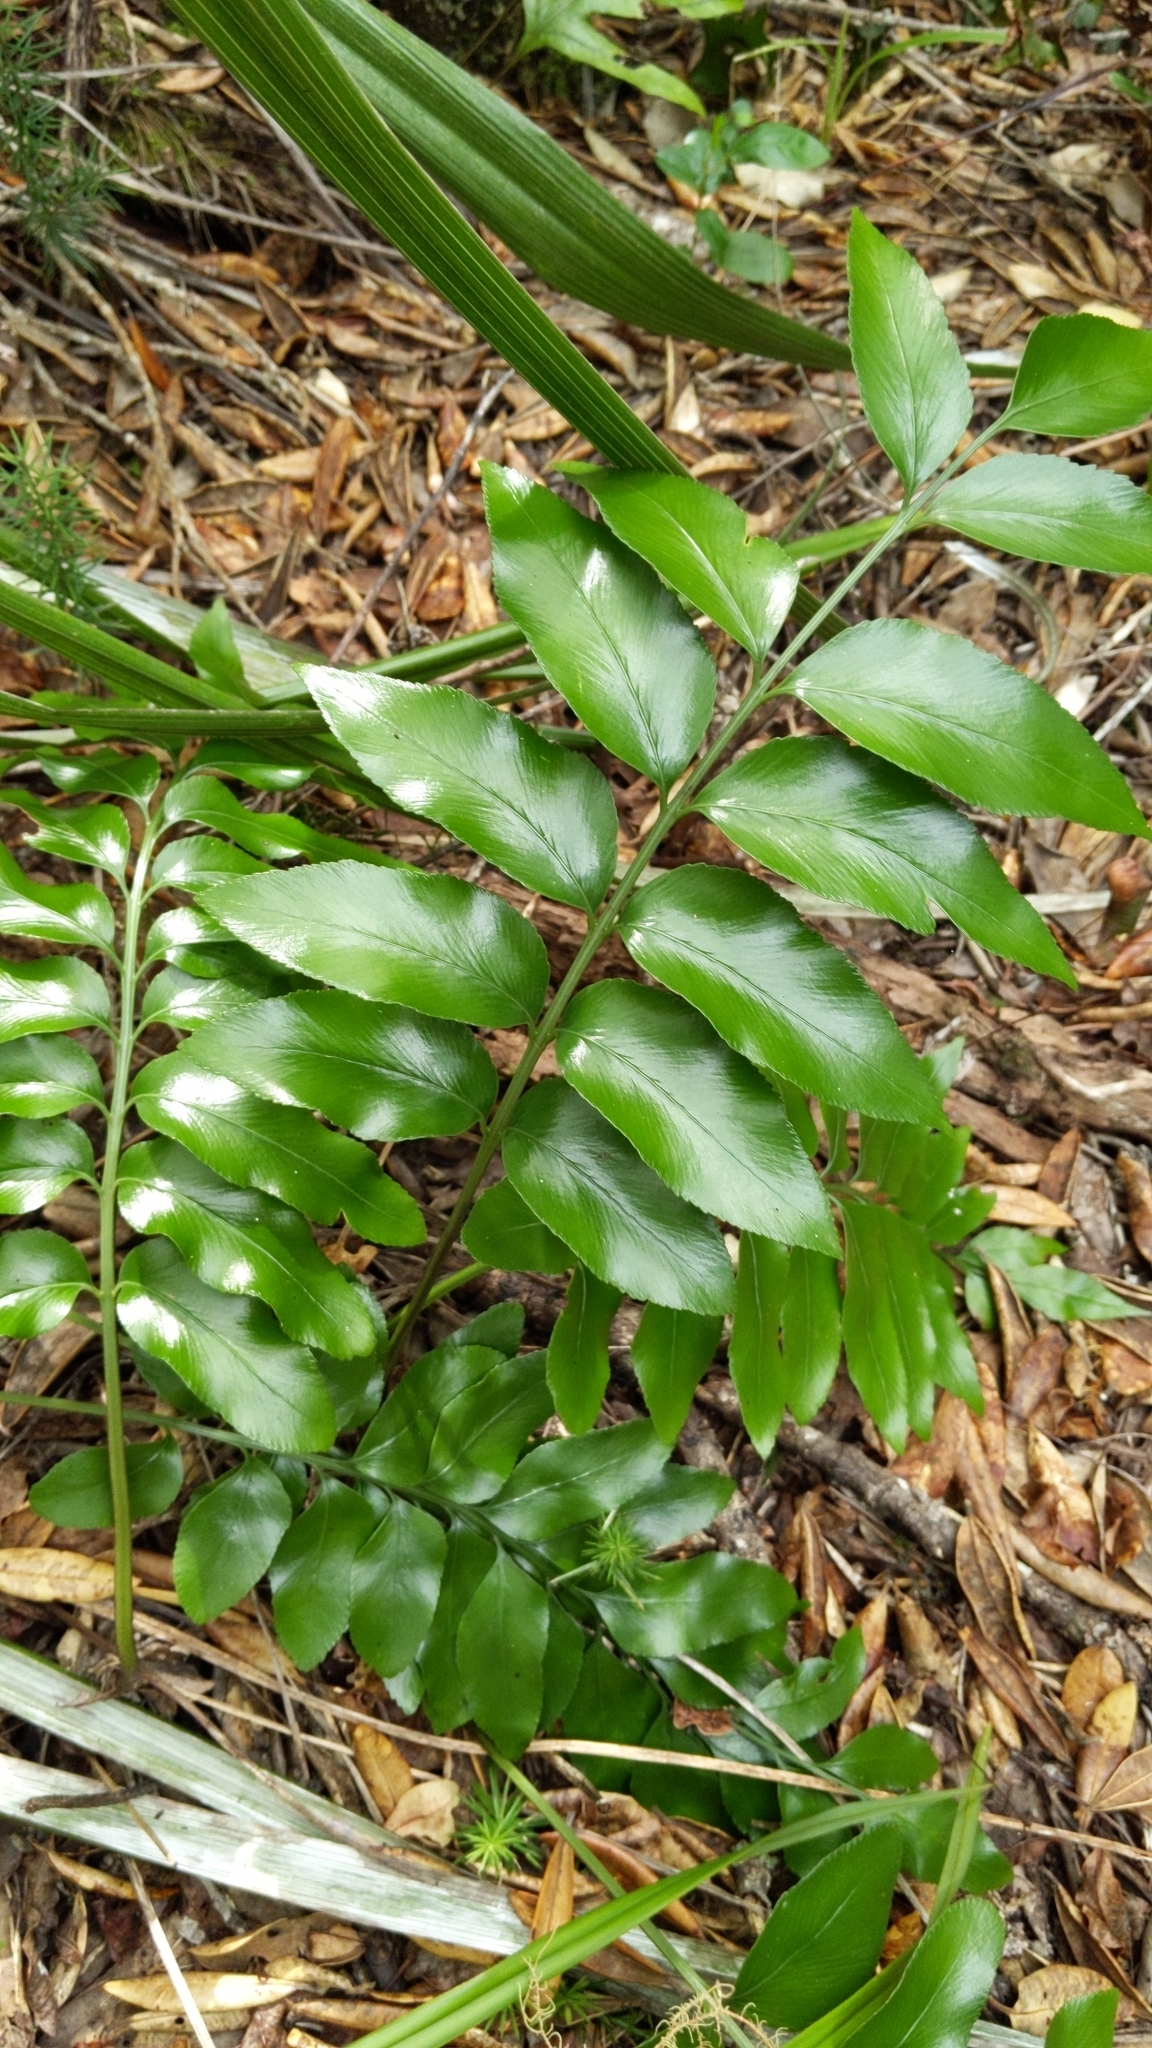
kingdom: Plantae
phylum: Tracheophyta
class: Polypodiopsida
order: Polypodiales
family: Aspleniaceae
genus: Asplenium
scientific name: Asplenium oblongifolium
